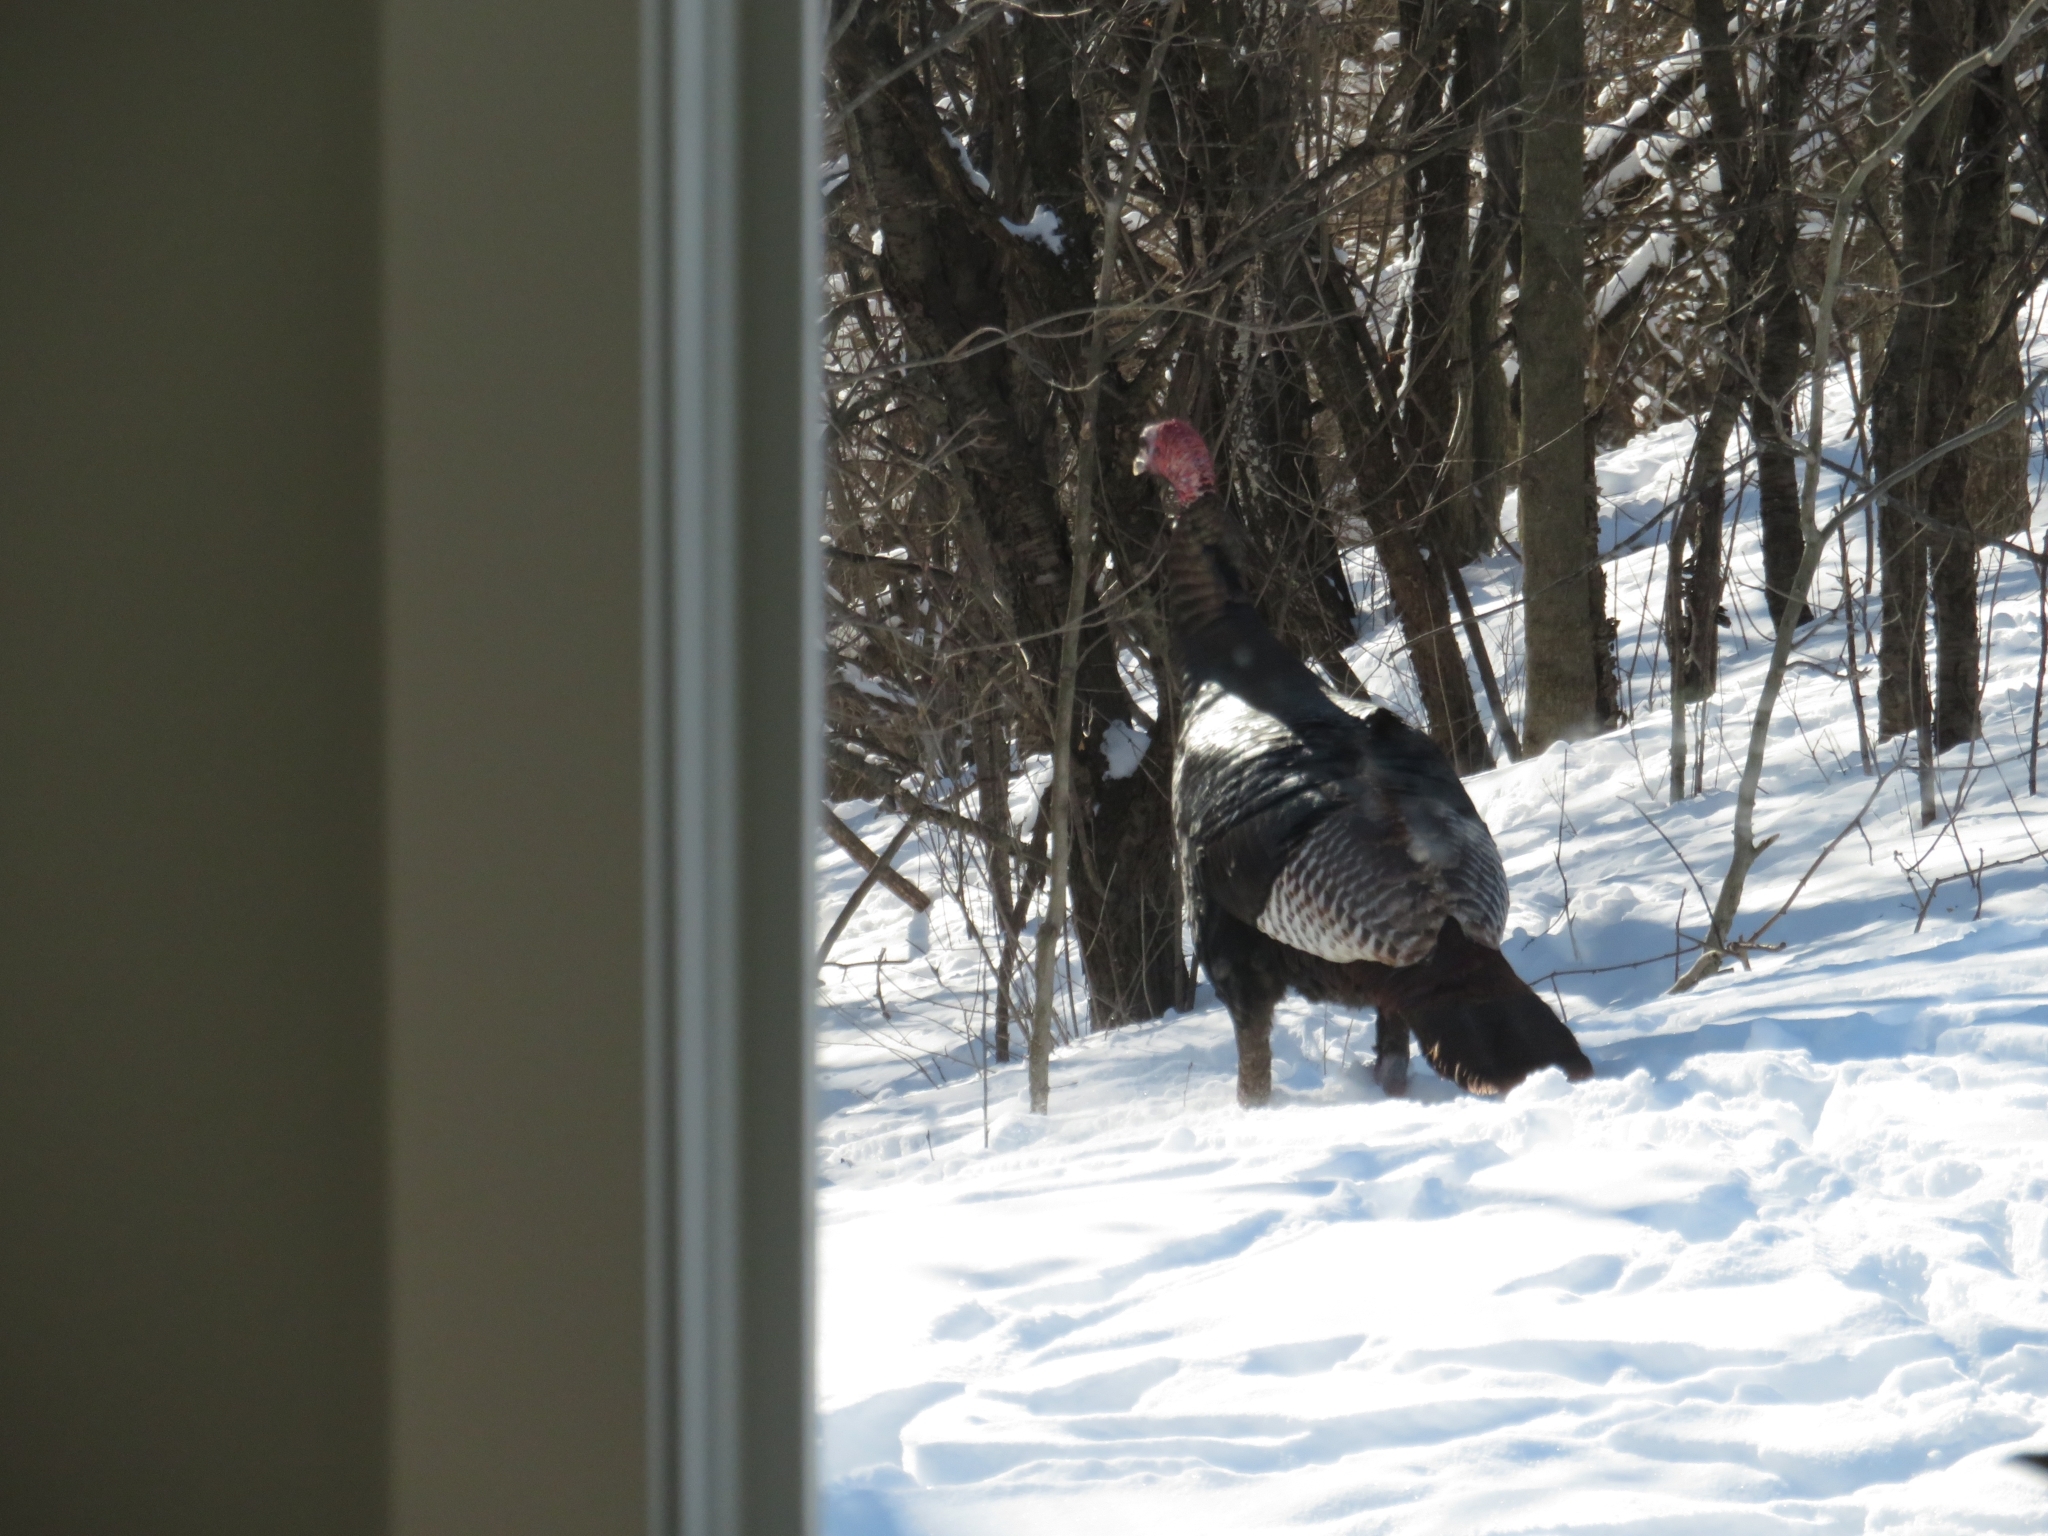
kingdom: Animalia
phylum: Chordata
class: Aves
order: Galliformes
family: Phasianidae
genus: Meleagris
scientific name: Meleagris gallopavo
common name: Wild turkey
